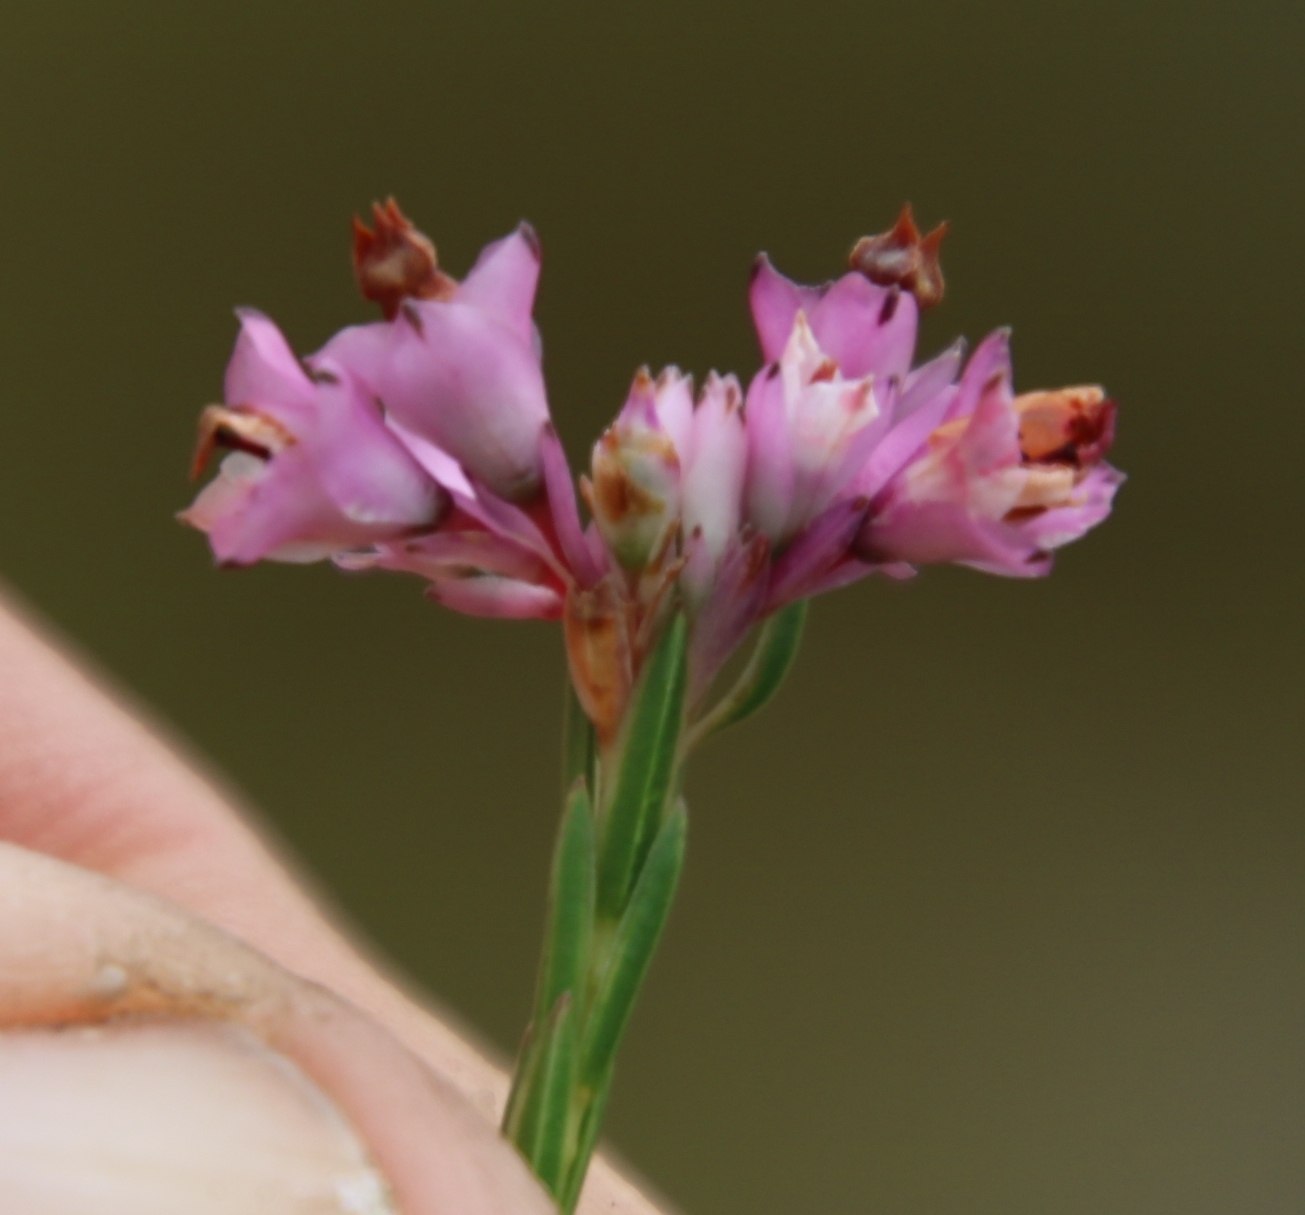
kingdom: Plantae
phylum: Tracheophyta
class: Magnoliopsida
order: Ericales
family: Ericaceae
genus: Erica
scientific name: Erica corifolia
